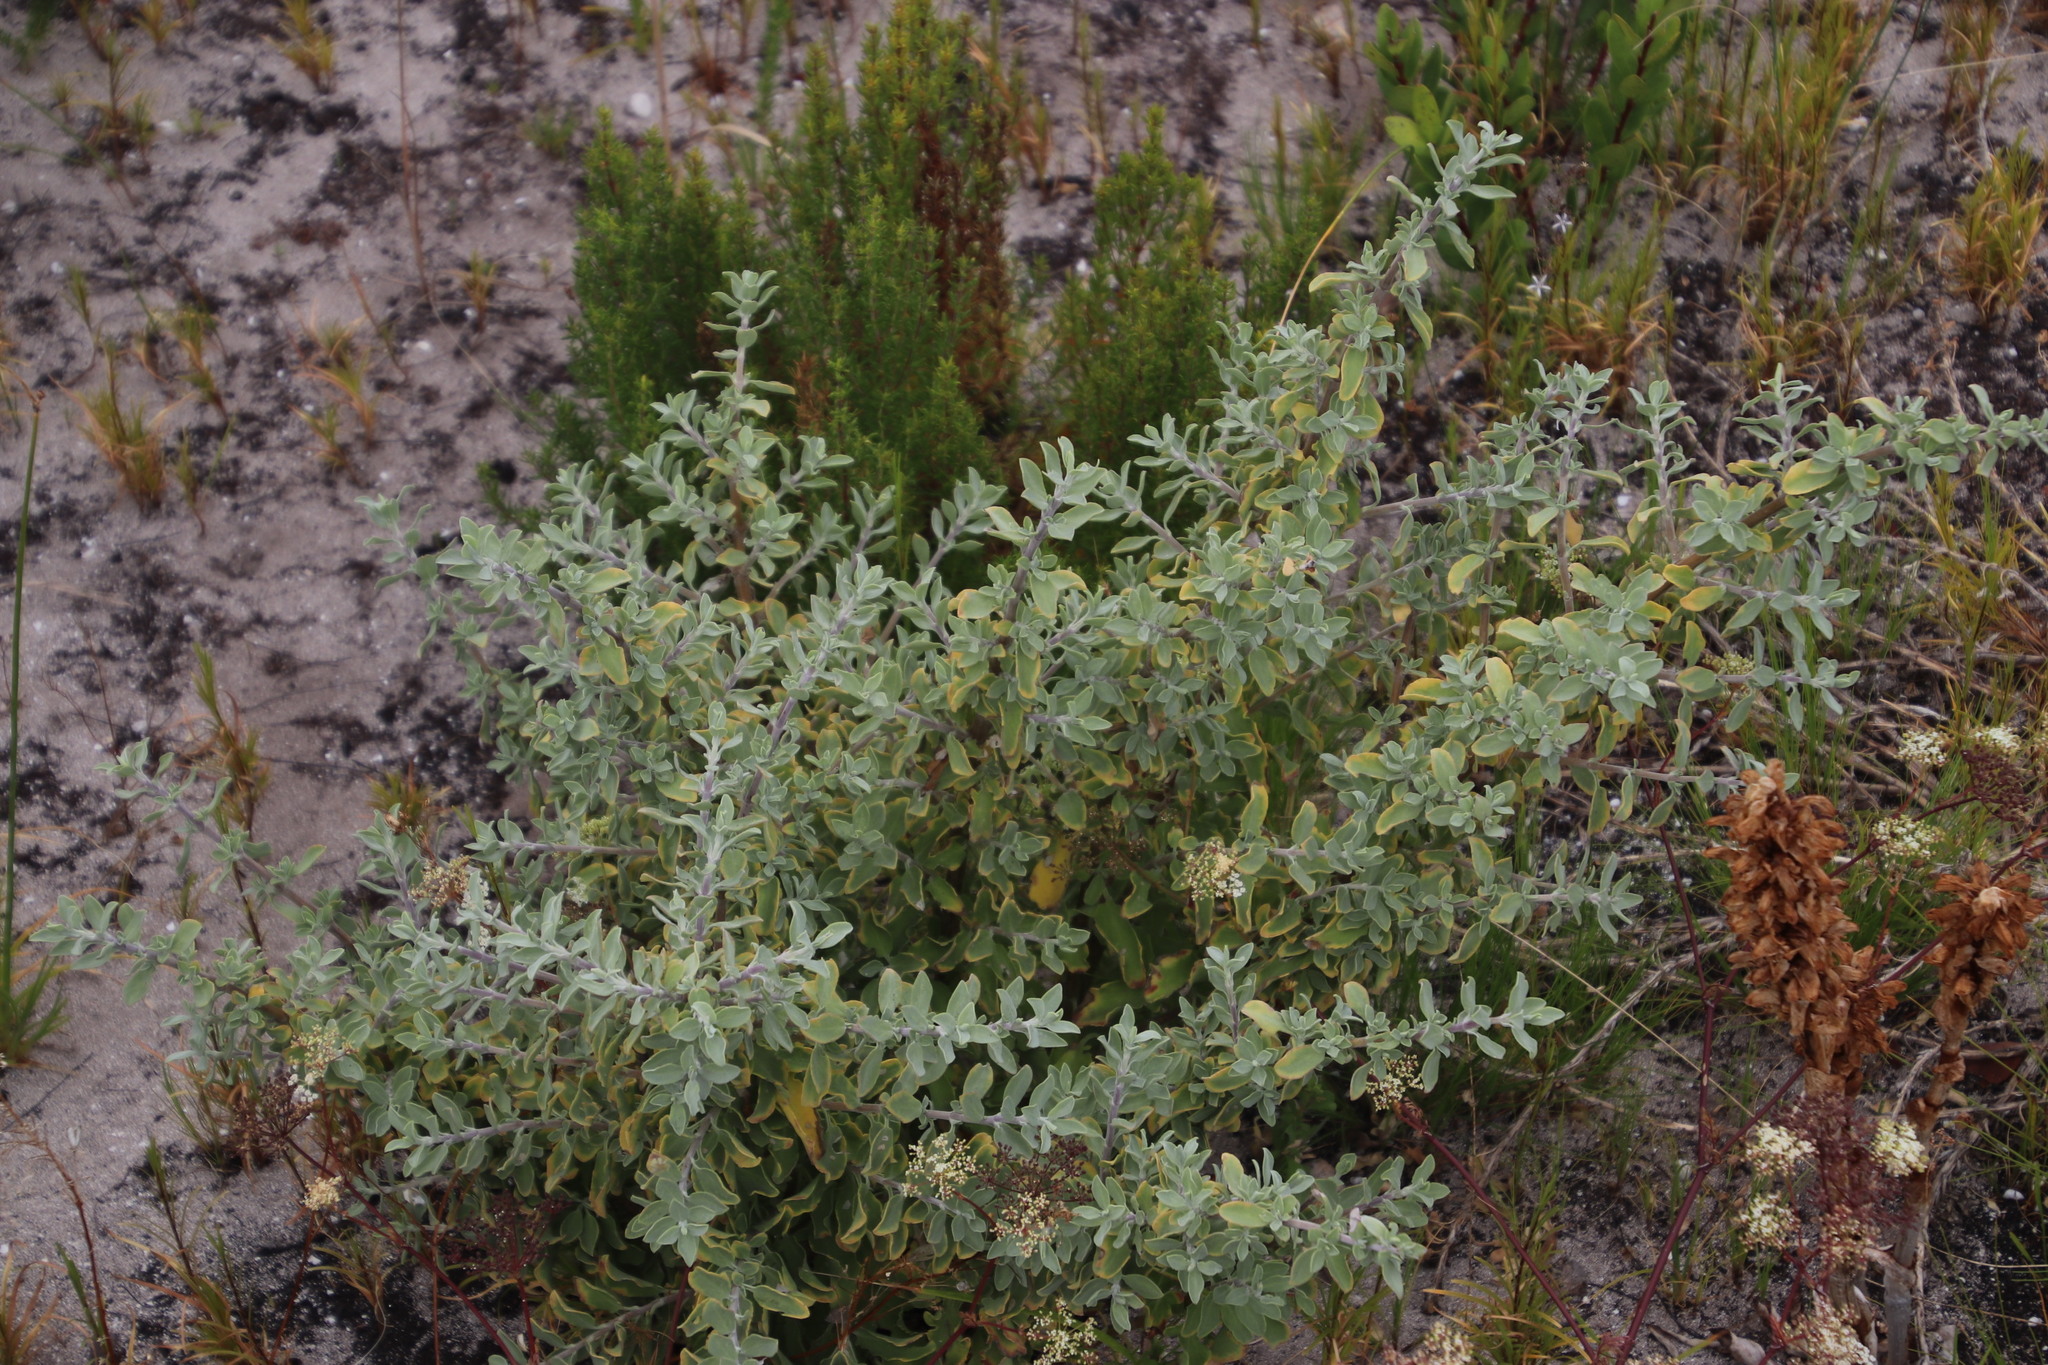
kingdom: Plantae
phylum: Tracheophyta
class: Magnoliopsida
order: Lamiales
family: Lamiaceae
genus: Salvia
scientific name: Salvia aurea
